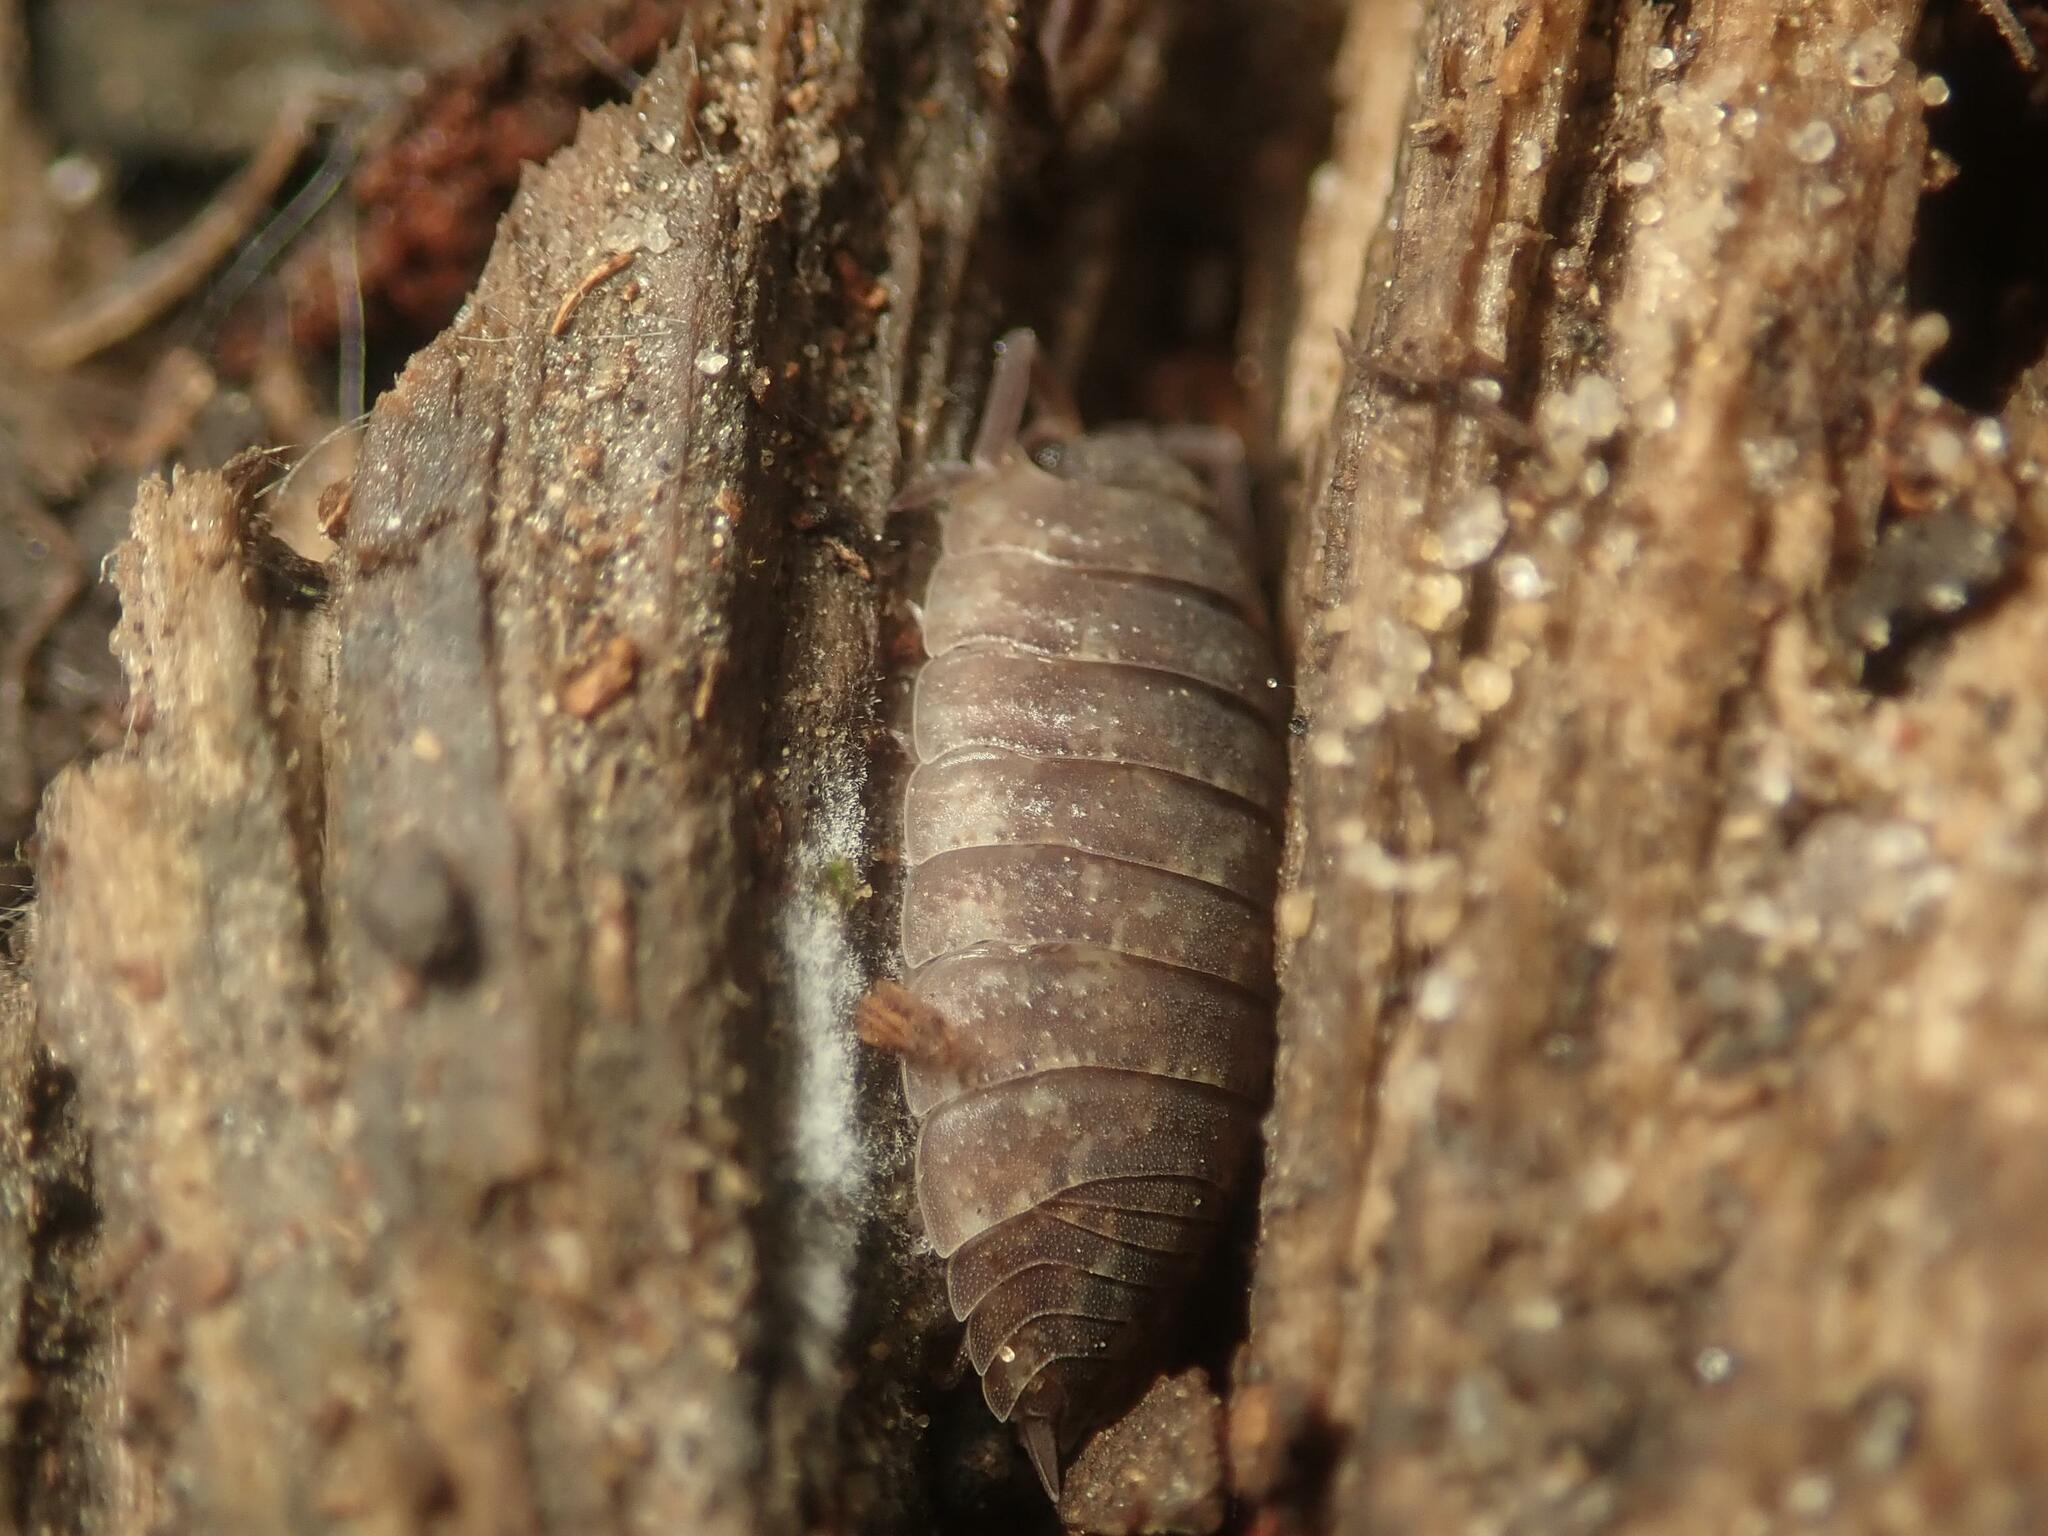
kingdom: Animalia
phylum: Arthropoda
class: Malacostraca
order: Isopoda
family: Porcellionidae
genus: Porcellio
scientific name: Porcellio scaber
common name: Common rough woodlouse
